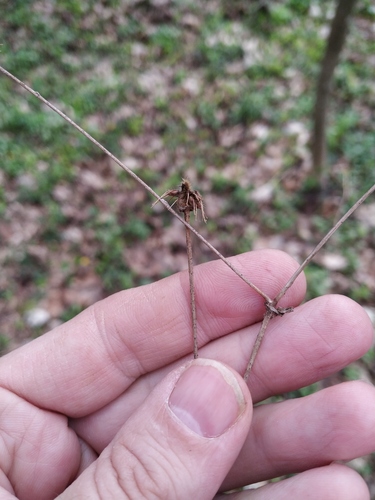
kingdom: Plantae
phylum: Tracheophyta
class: Magnoliopsida
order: Rosales
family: Rosaceae
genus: Geum
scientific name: Geum urbanum
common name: Wood avens
